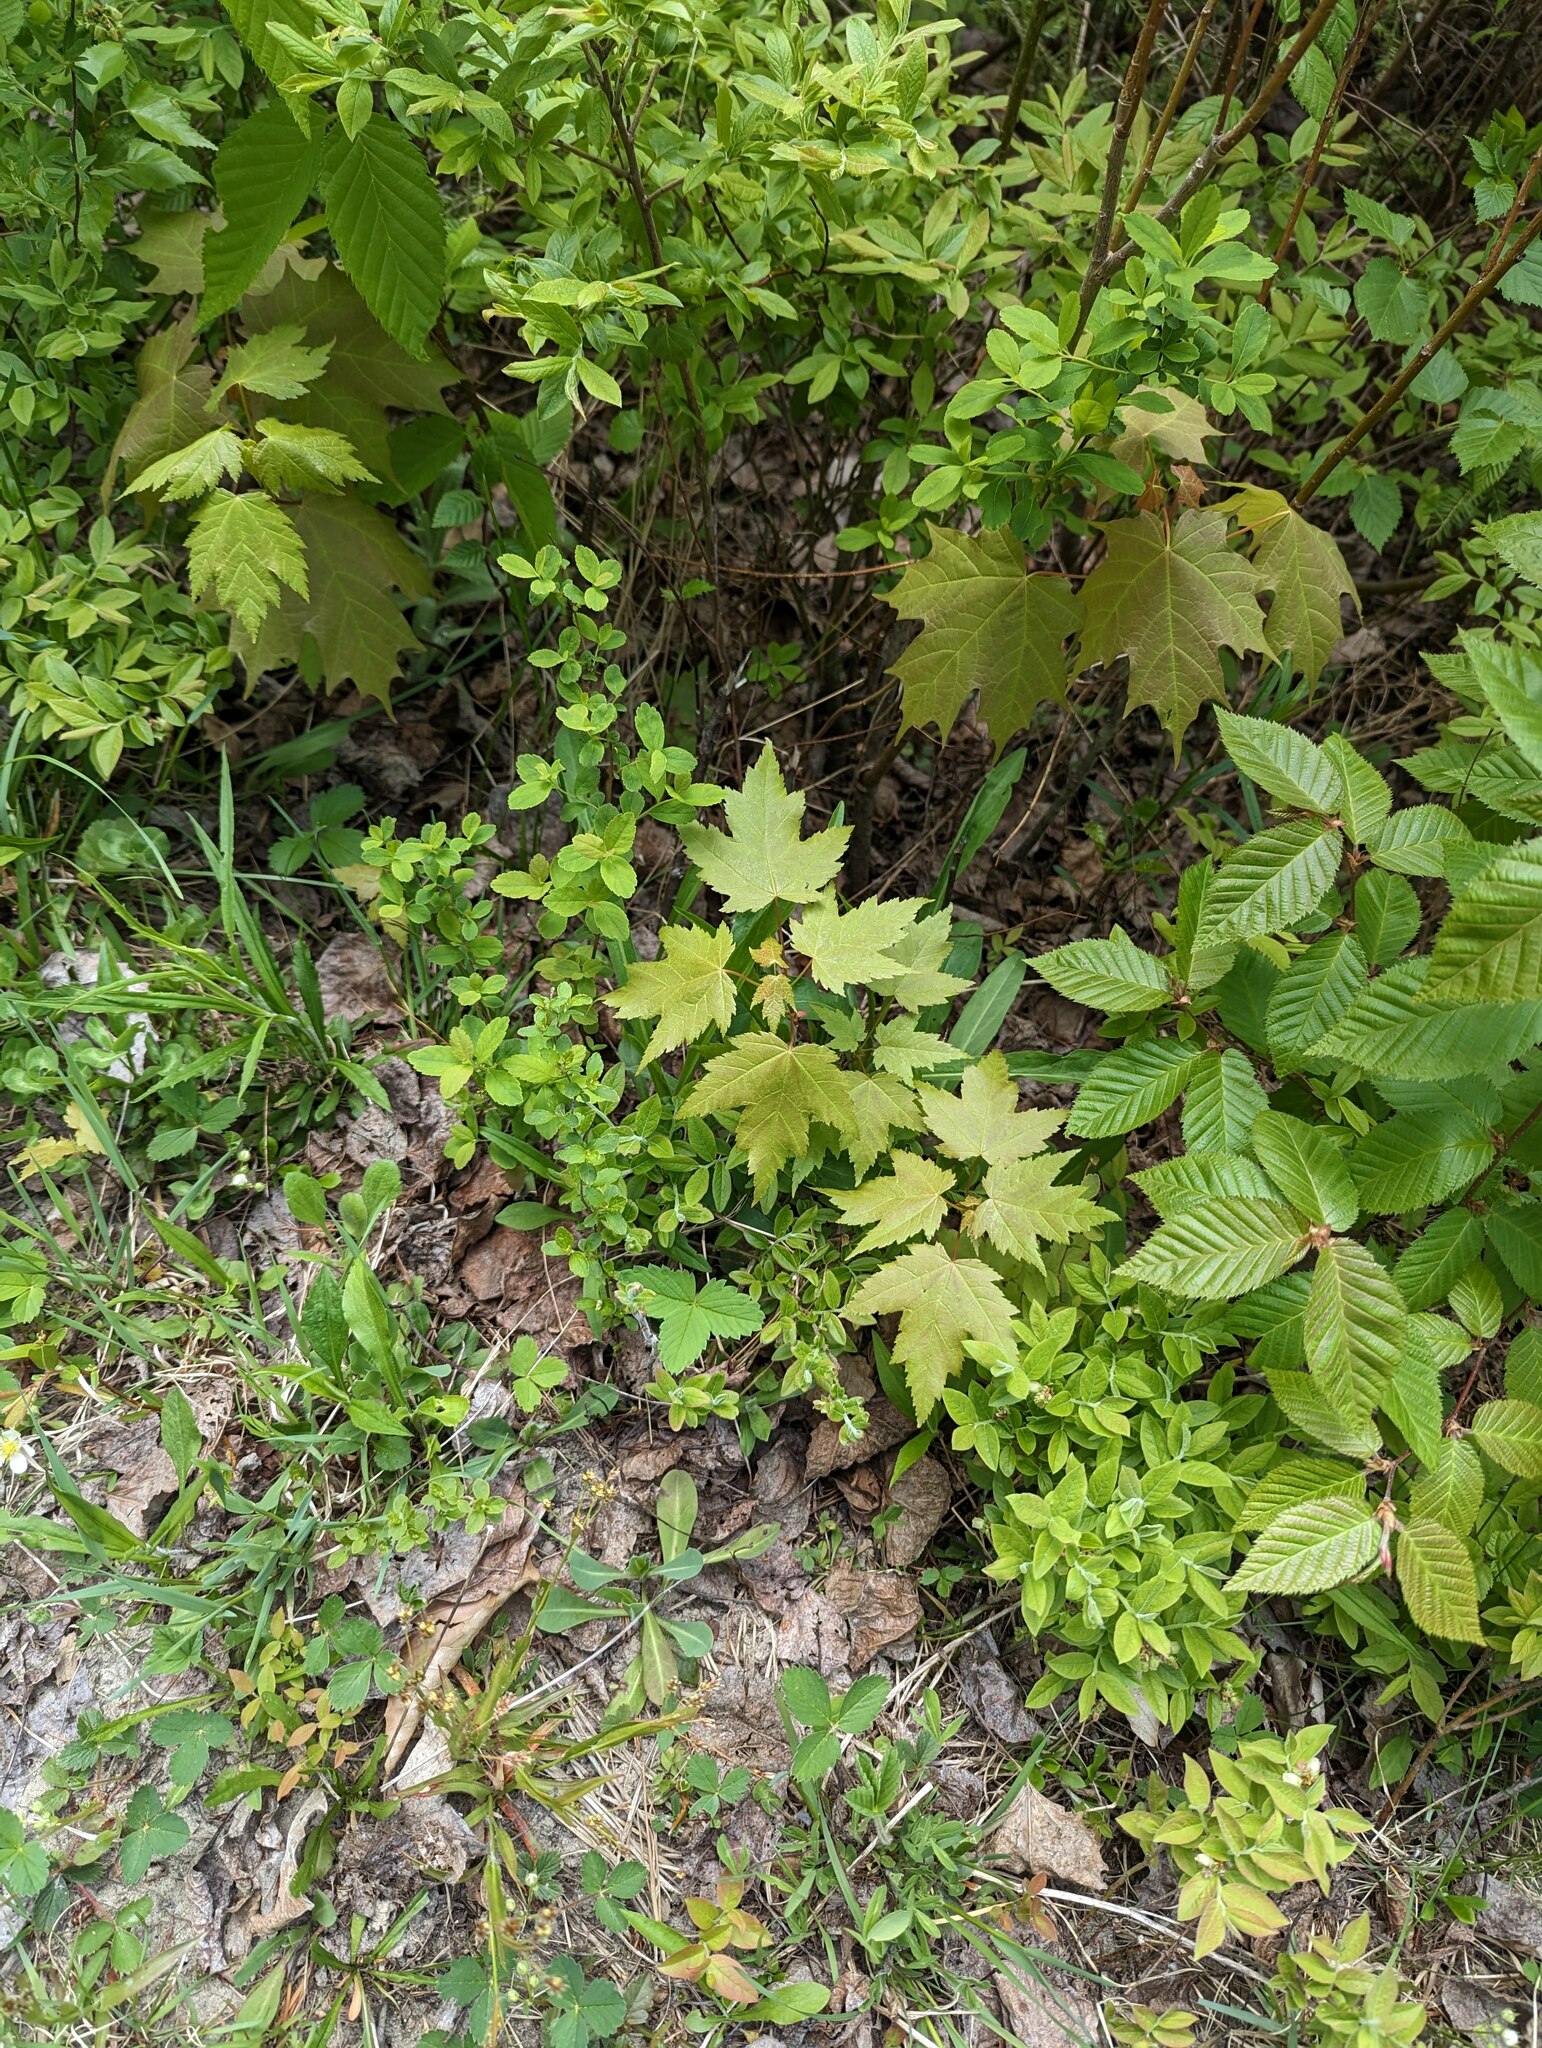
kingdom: Plantae
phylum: Tracheophyta
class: Magnoliopsida
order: Sapindales
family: Sapindaceae
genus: Acer
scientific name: Acer rubrum
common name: Red maple
